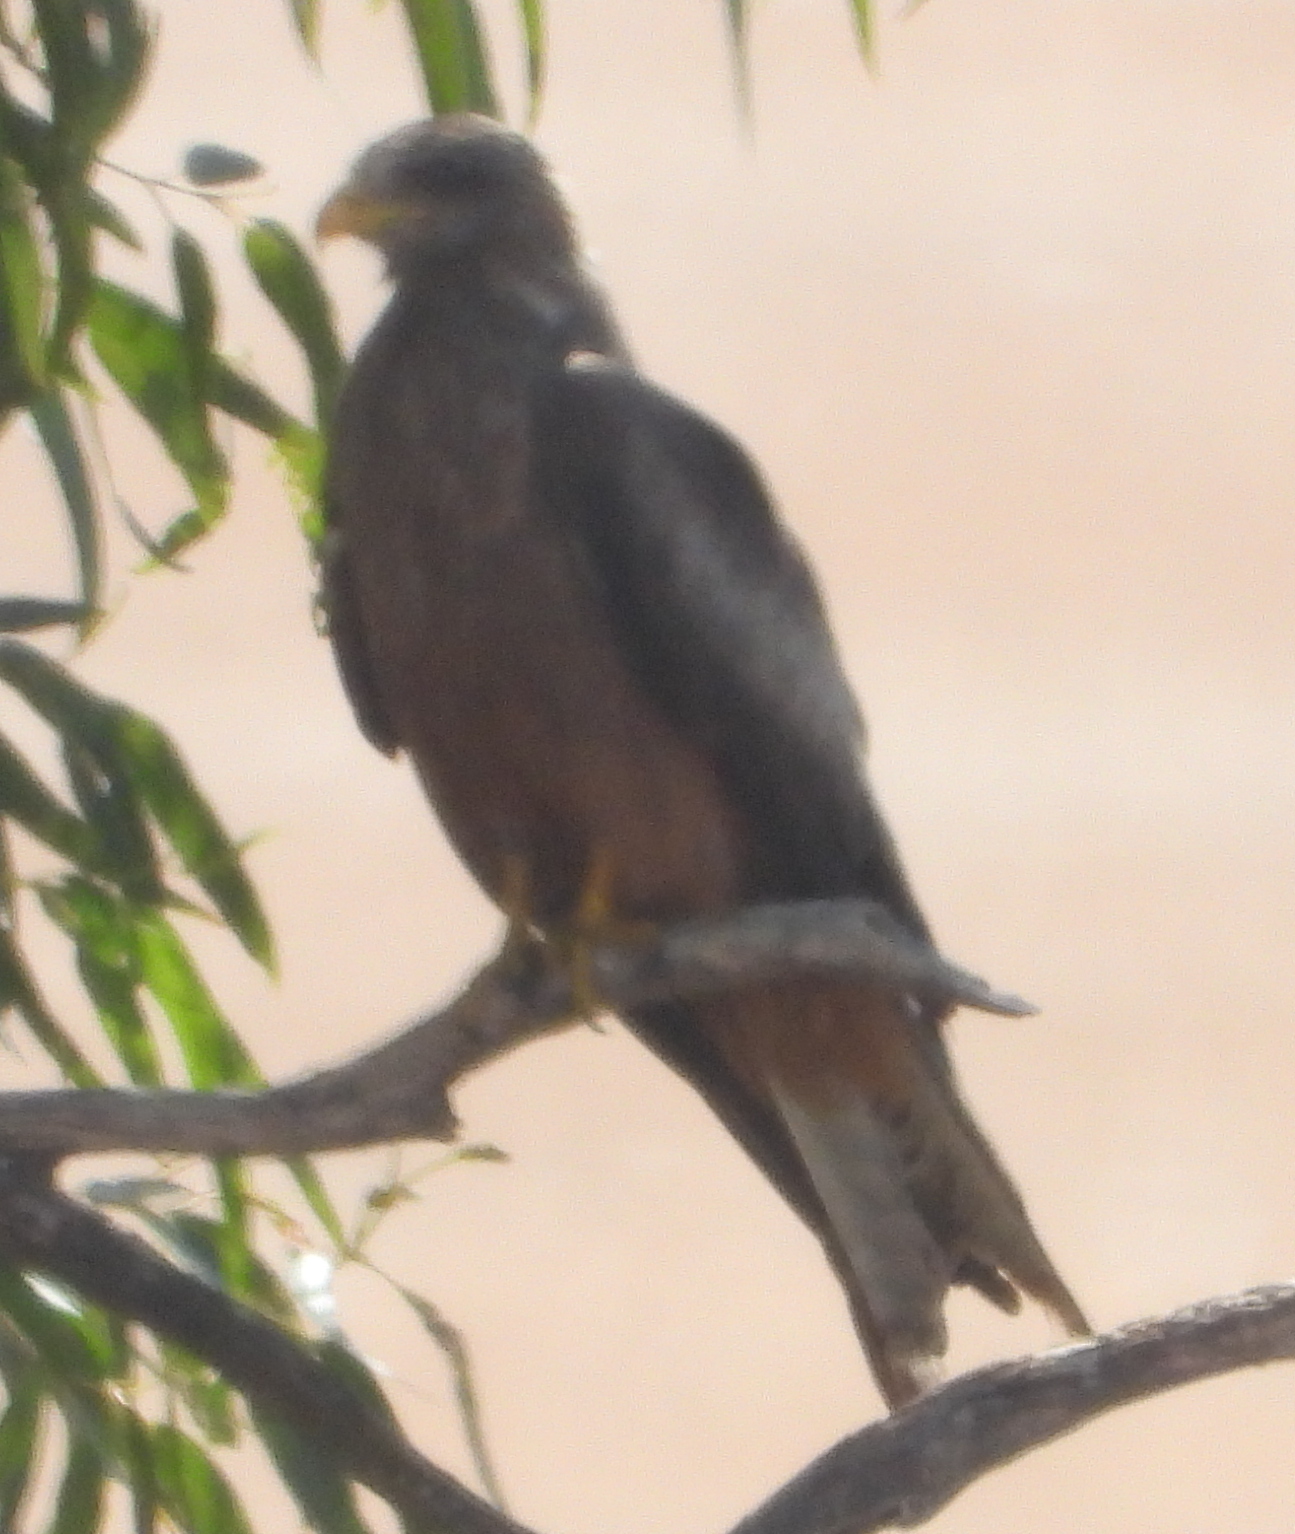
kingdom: Animalia
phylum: Chordata
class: Aves
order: Accipitriformes
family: Accipitridae
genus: Milvus
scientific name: Milvus migrans
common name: Black kite
